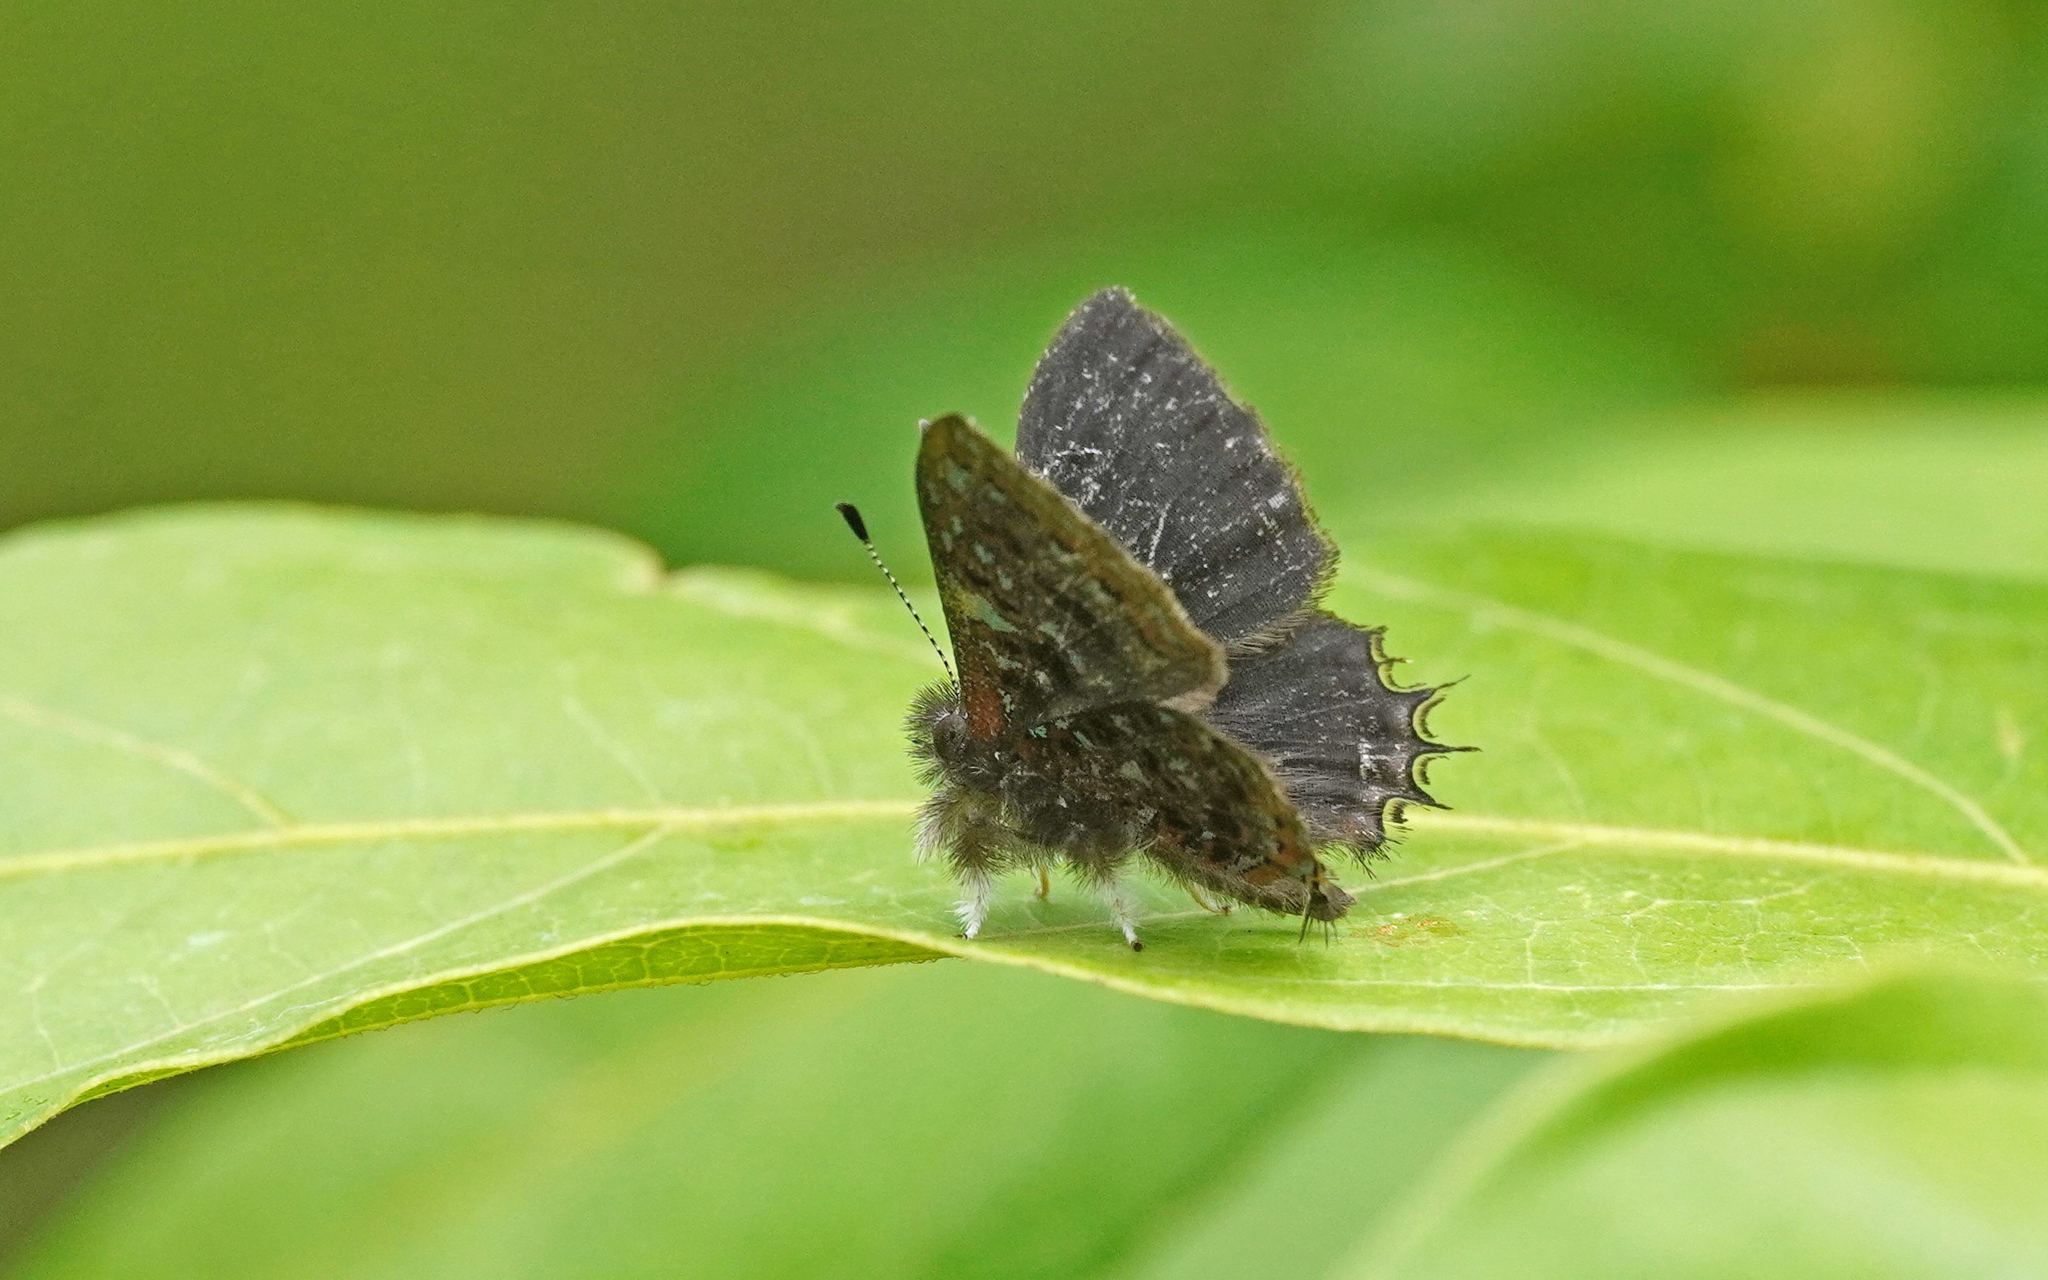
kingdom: Animalia
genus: Charis
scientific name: Charis
